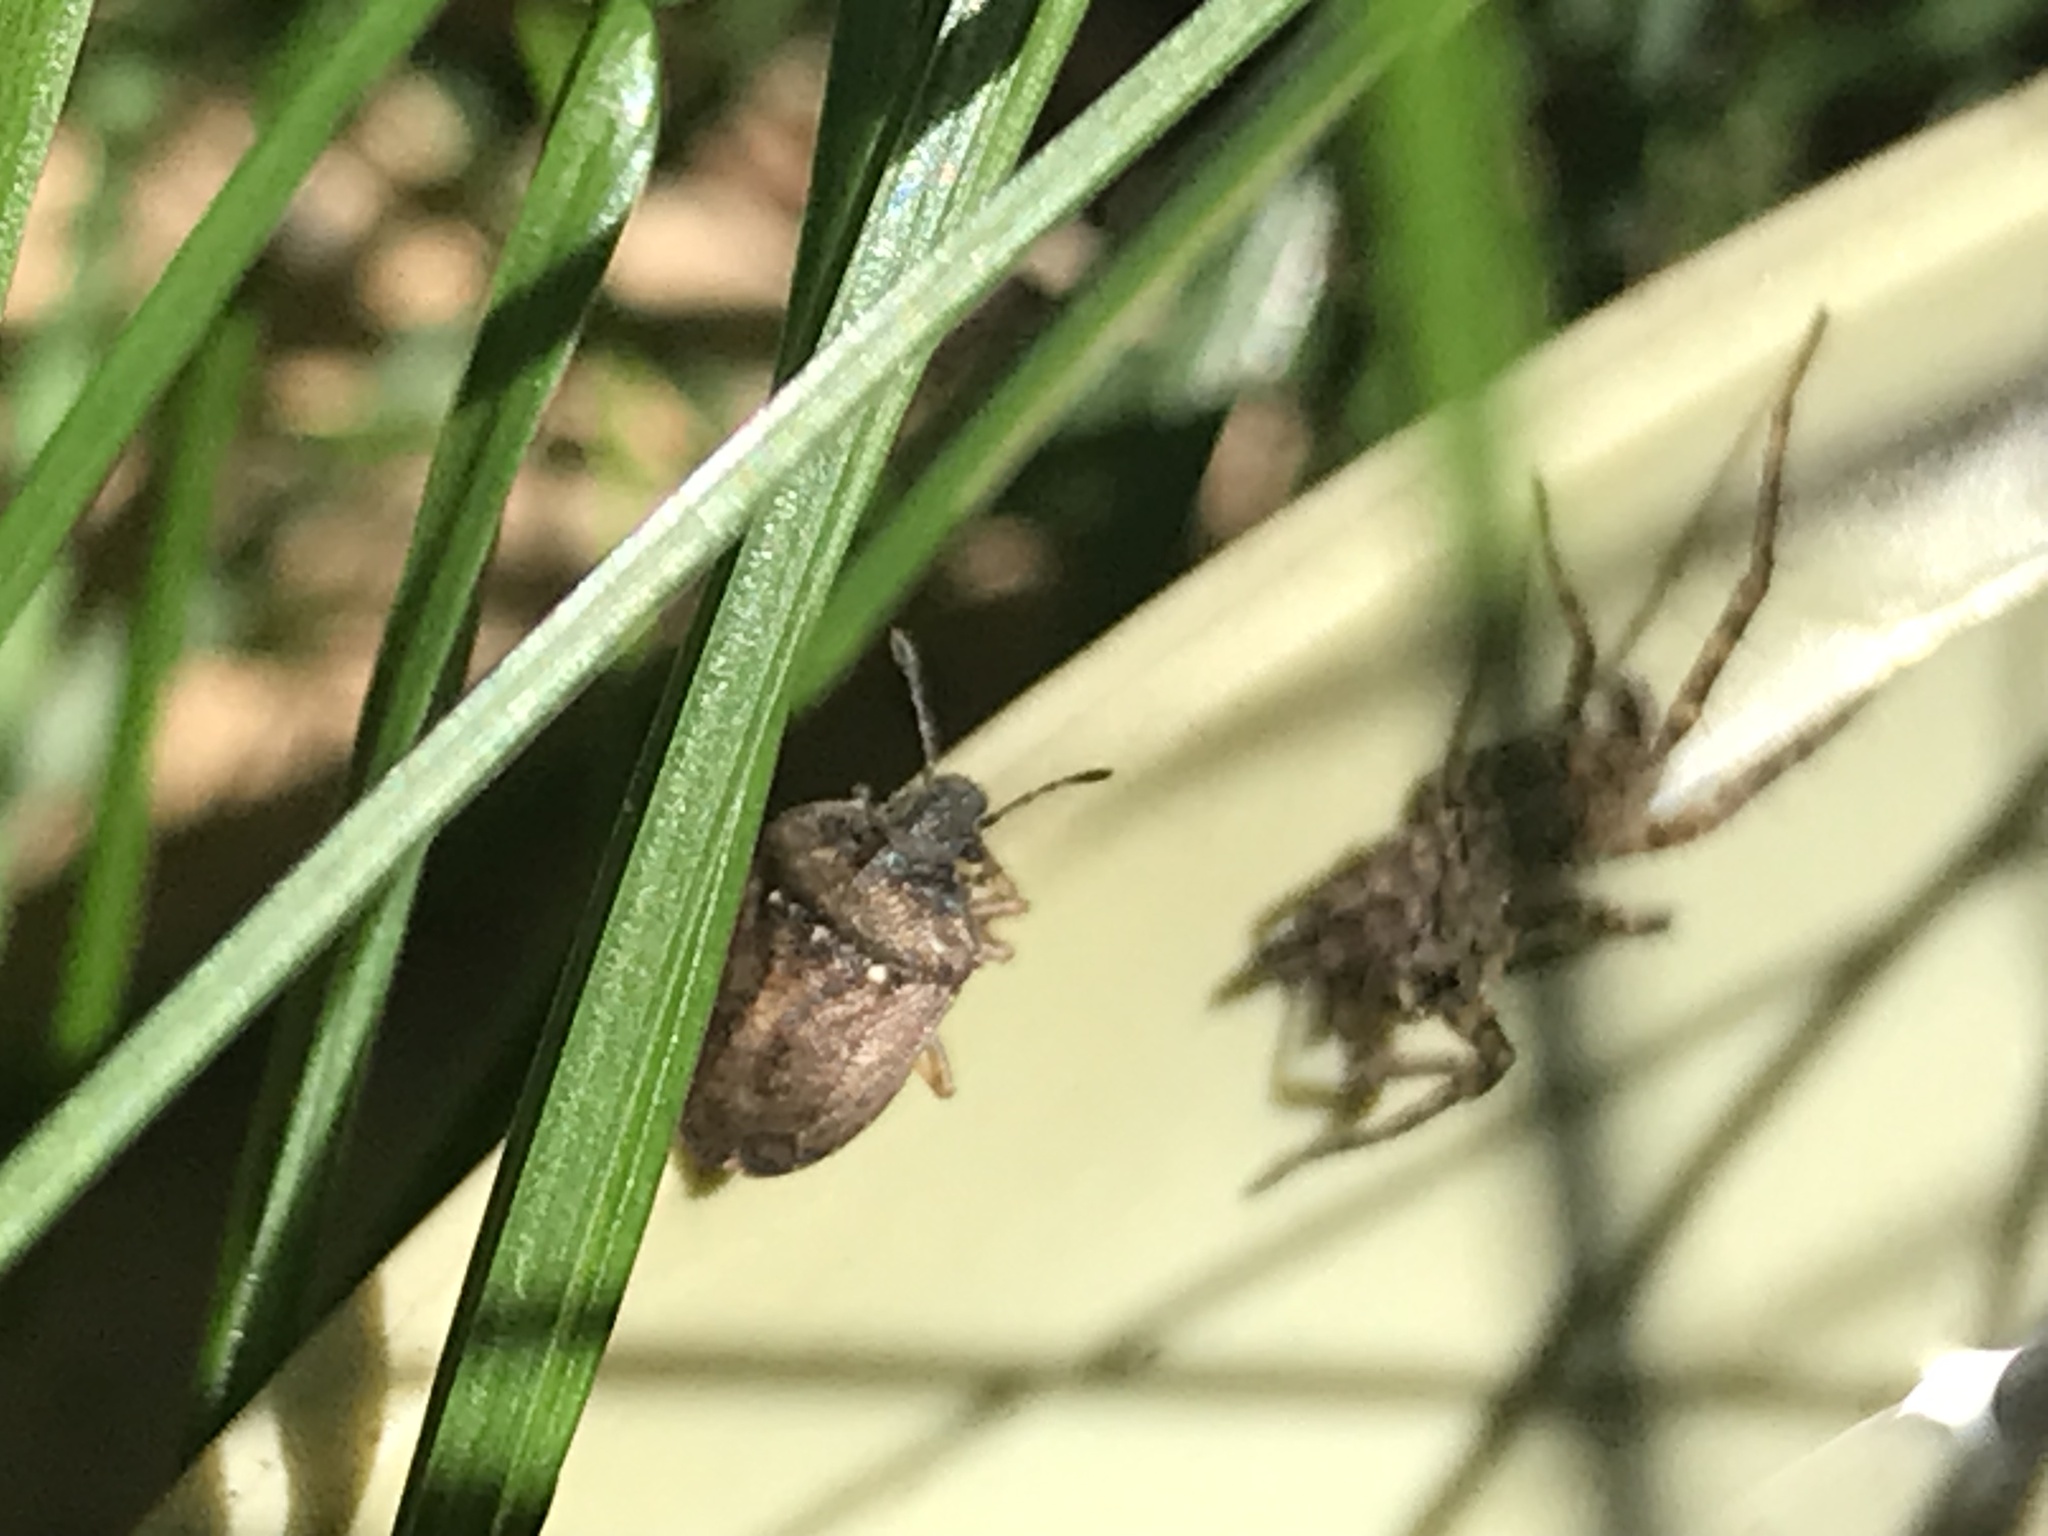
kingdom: Animalia
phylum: Arthropoda
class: Insecta
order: Hemiptera
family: Pentatomidae
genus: Podops
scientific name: Podops inunctus
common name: Turtle bug
